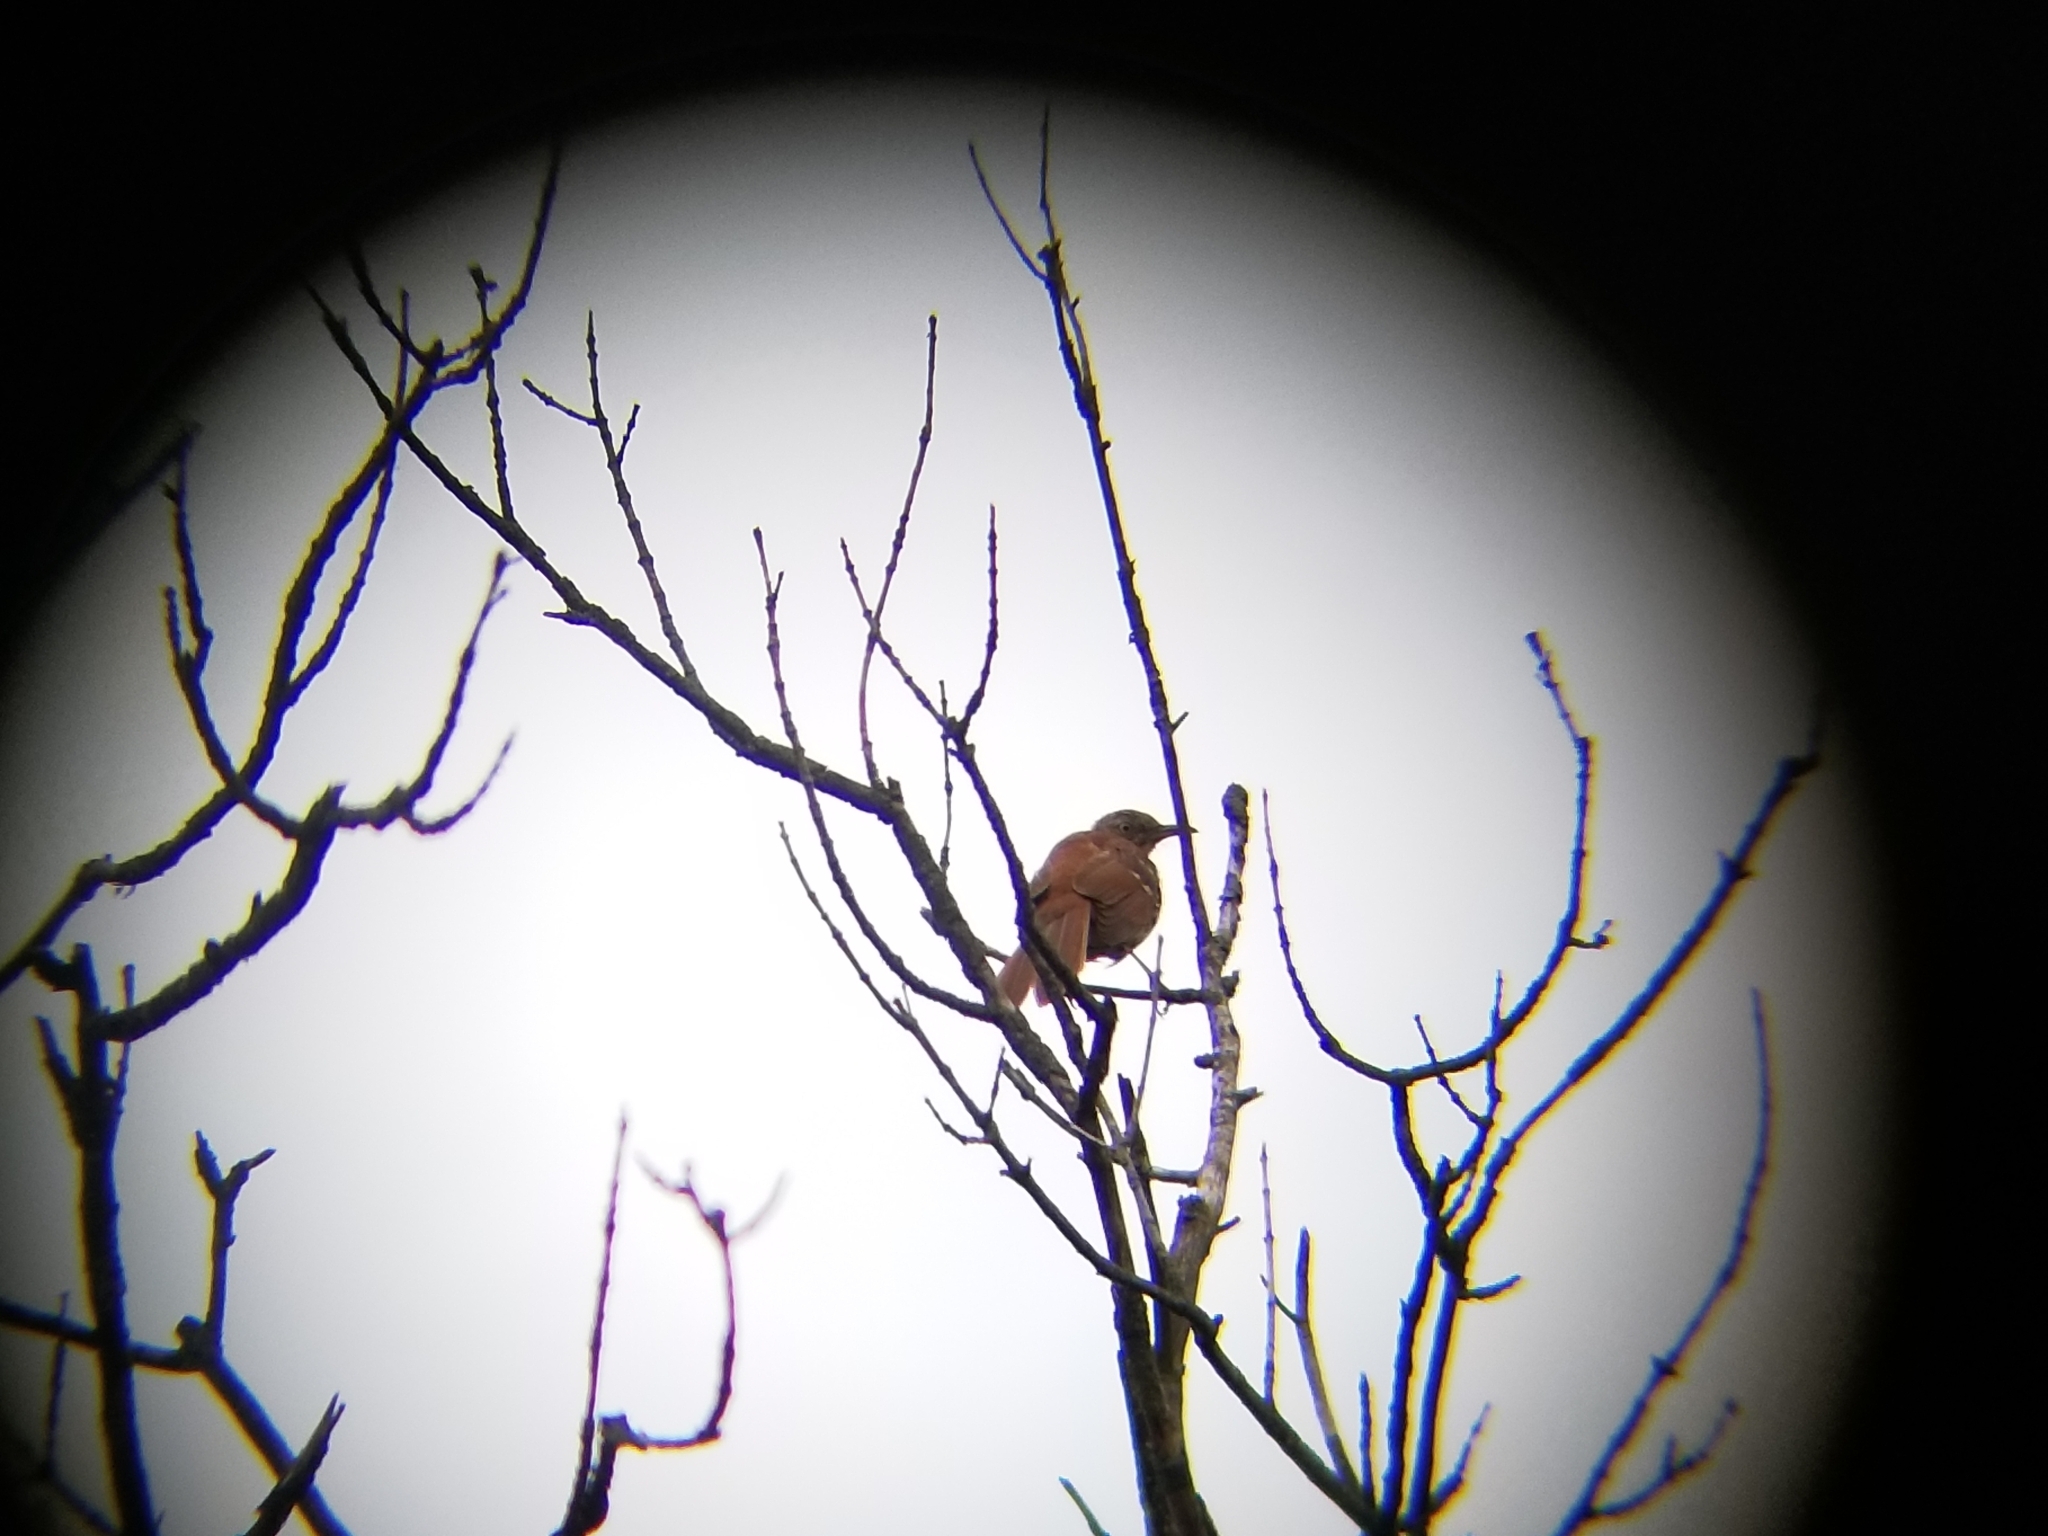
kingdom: Animalia
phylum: Chordata
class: Aves
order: Passeriformes
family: Mimidae
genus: Toxostoma
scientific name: Toxostoma rufum
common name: Brown thrasher
